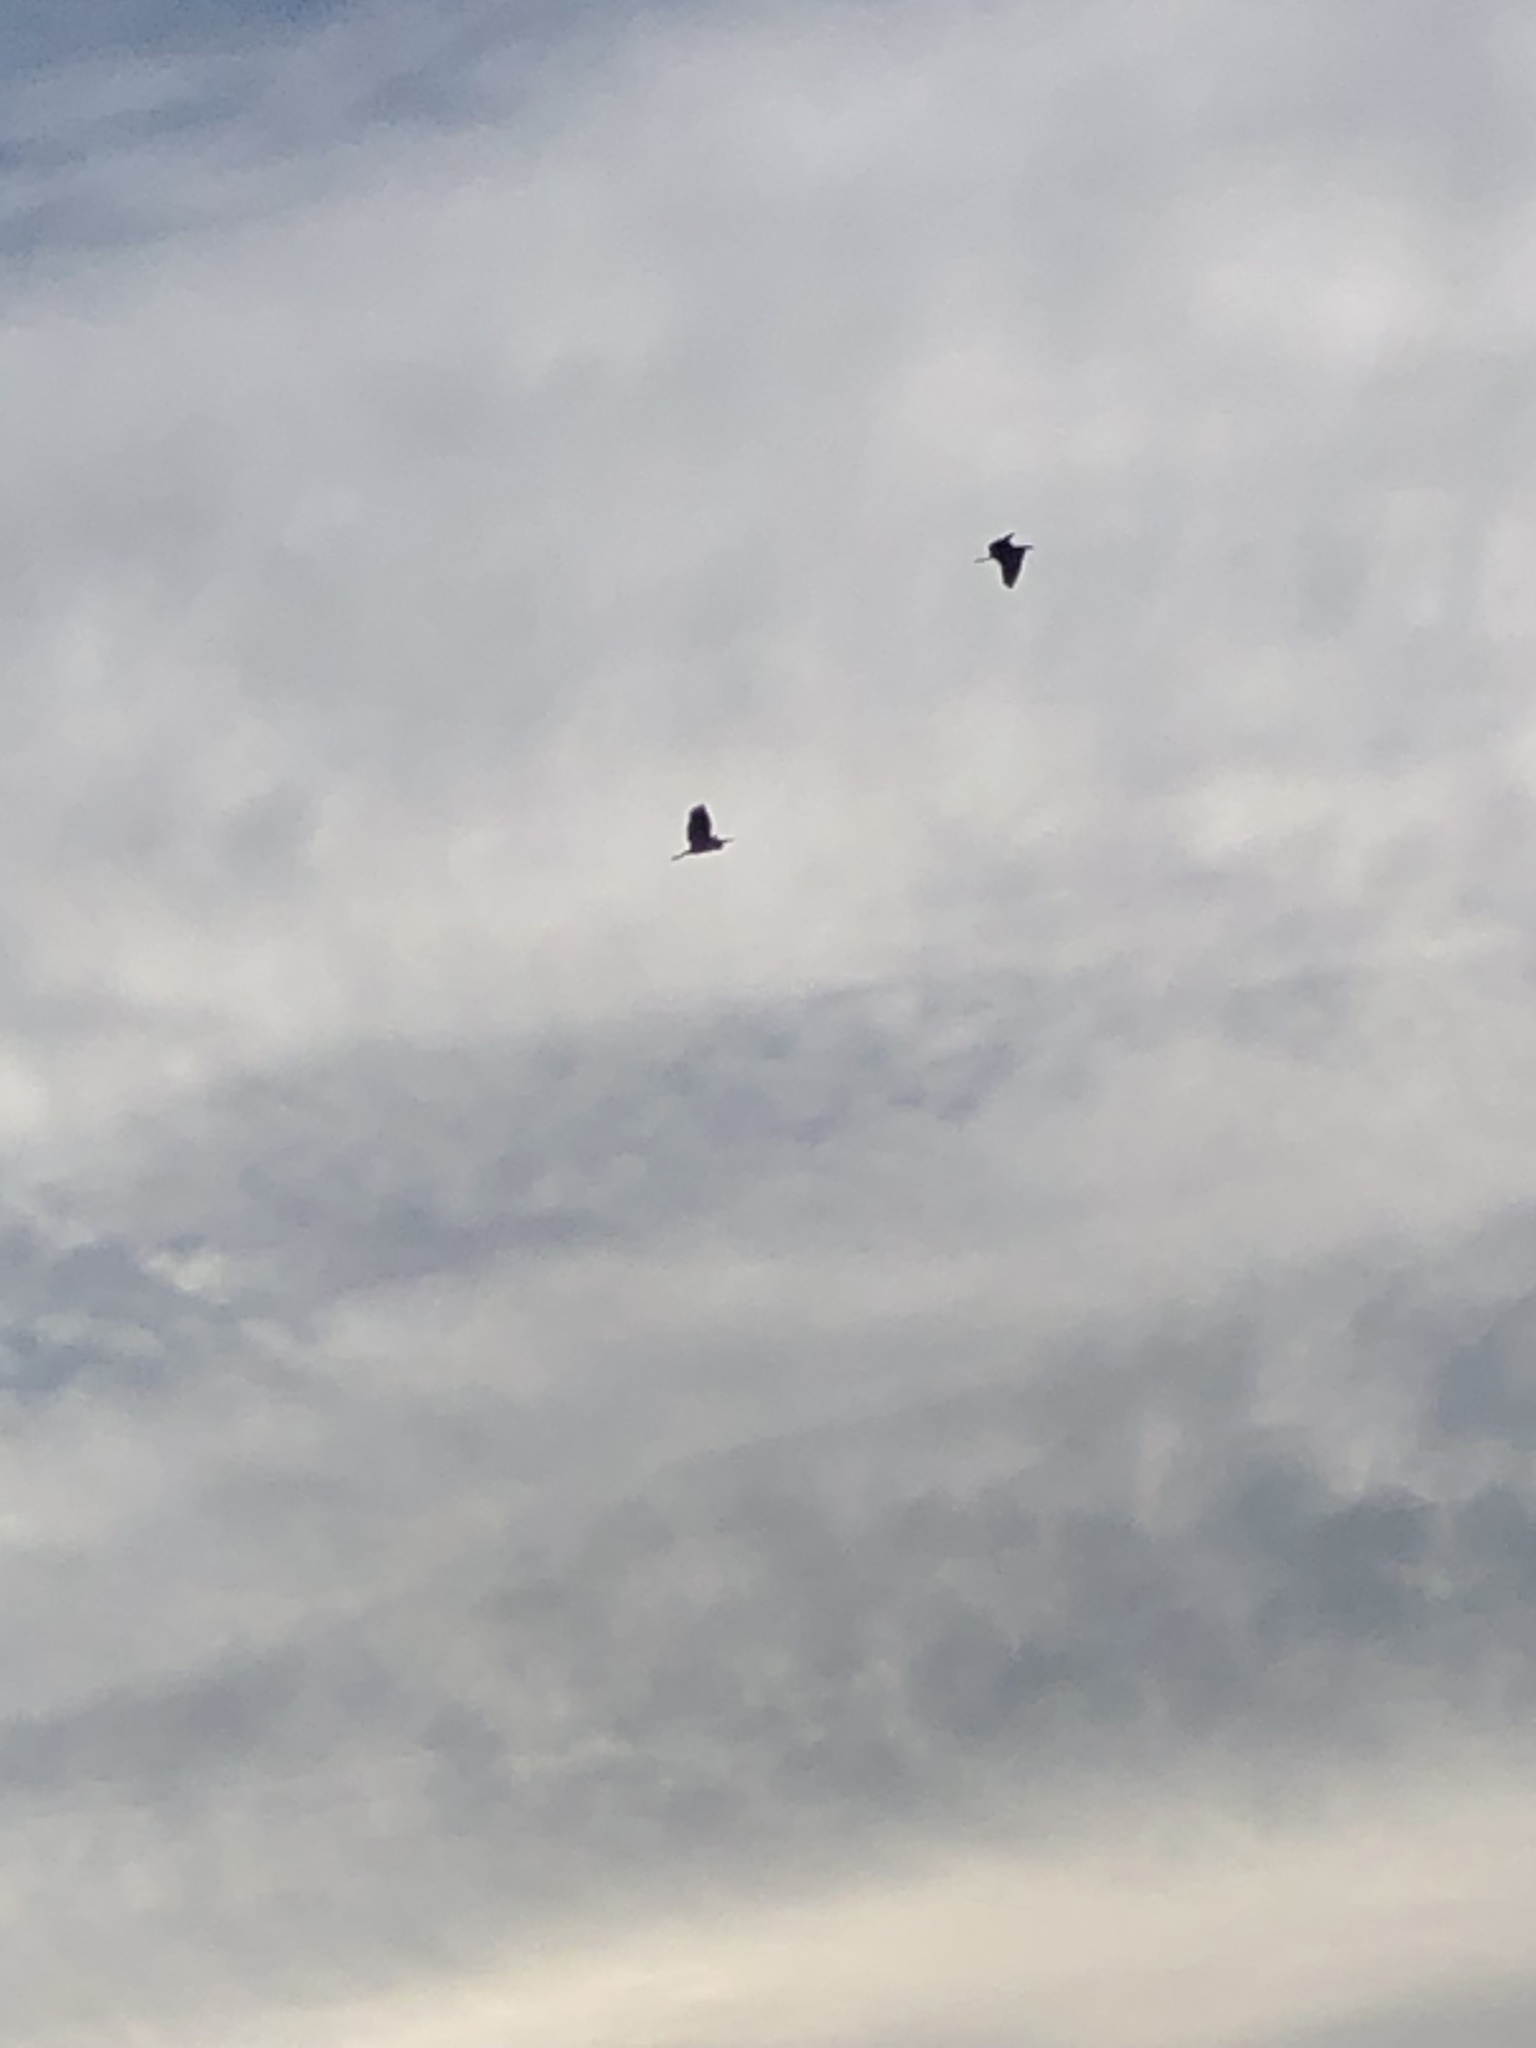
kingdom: Animalia
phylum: Chordata
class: Aves
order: Pelecaniformes
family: Ardeidae
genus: Ardea
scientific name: Ardea herodias
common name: Great blue heron
